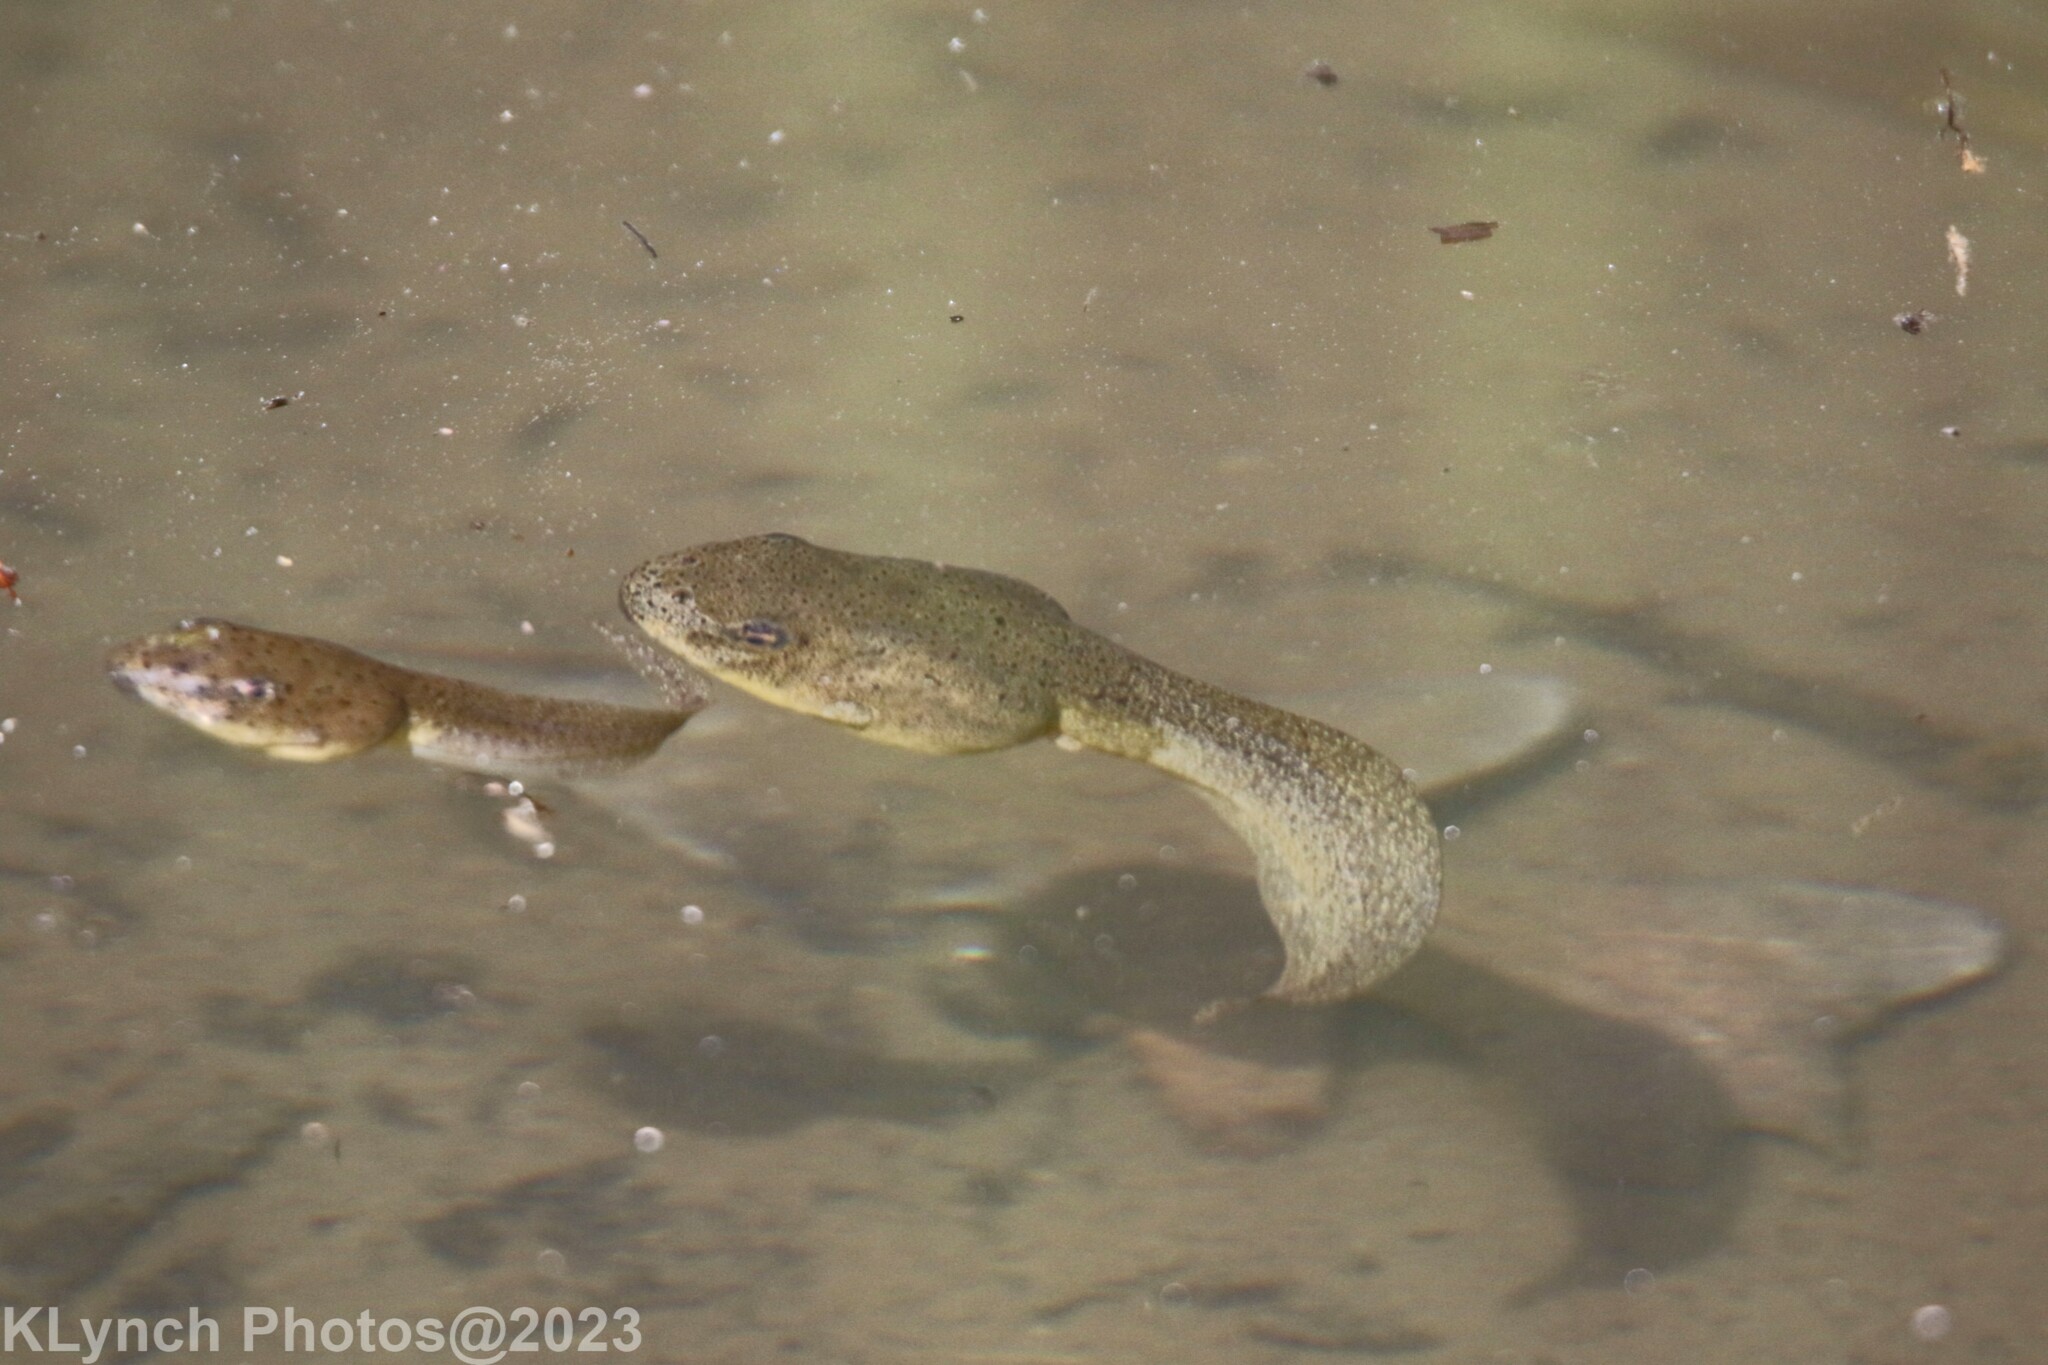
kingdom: Animalia
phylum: Chordata
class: Amphibia
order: Anura
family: Ranidae
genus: Lithobates
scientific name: Lithobates catesbeianus
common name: American bullfrog
